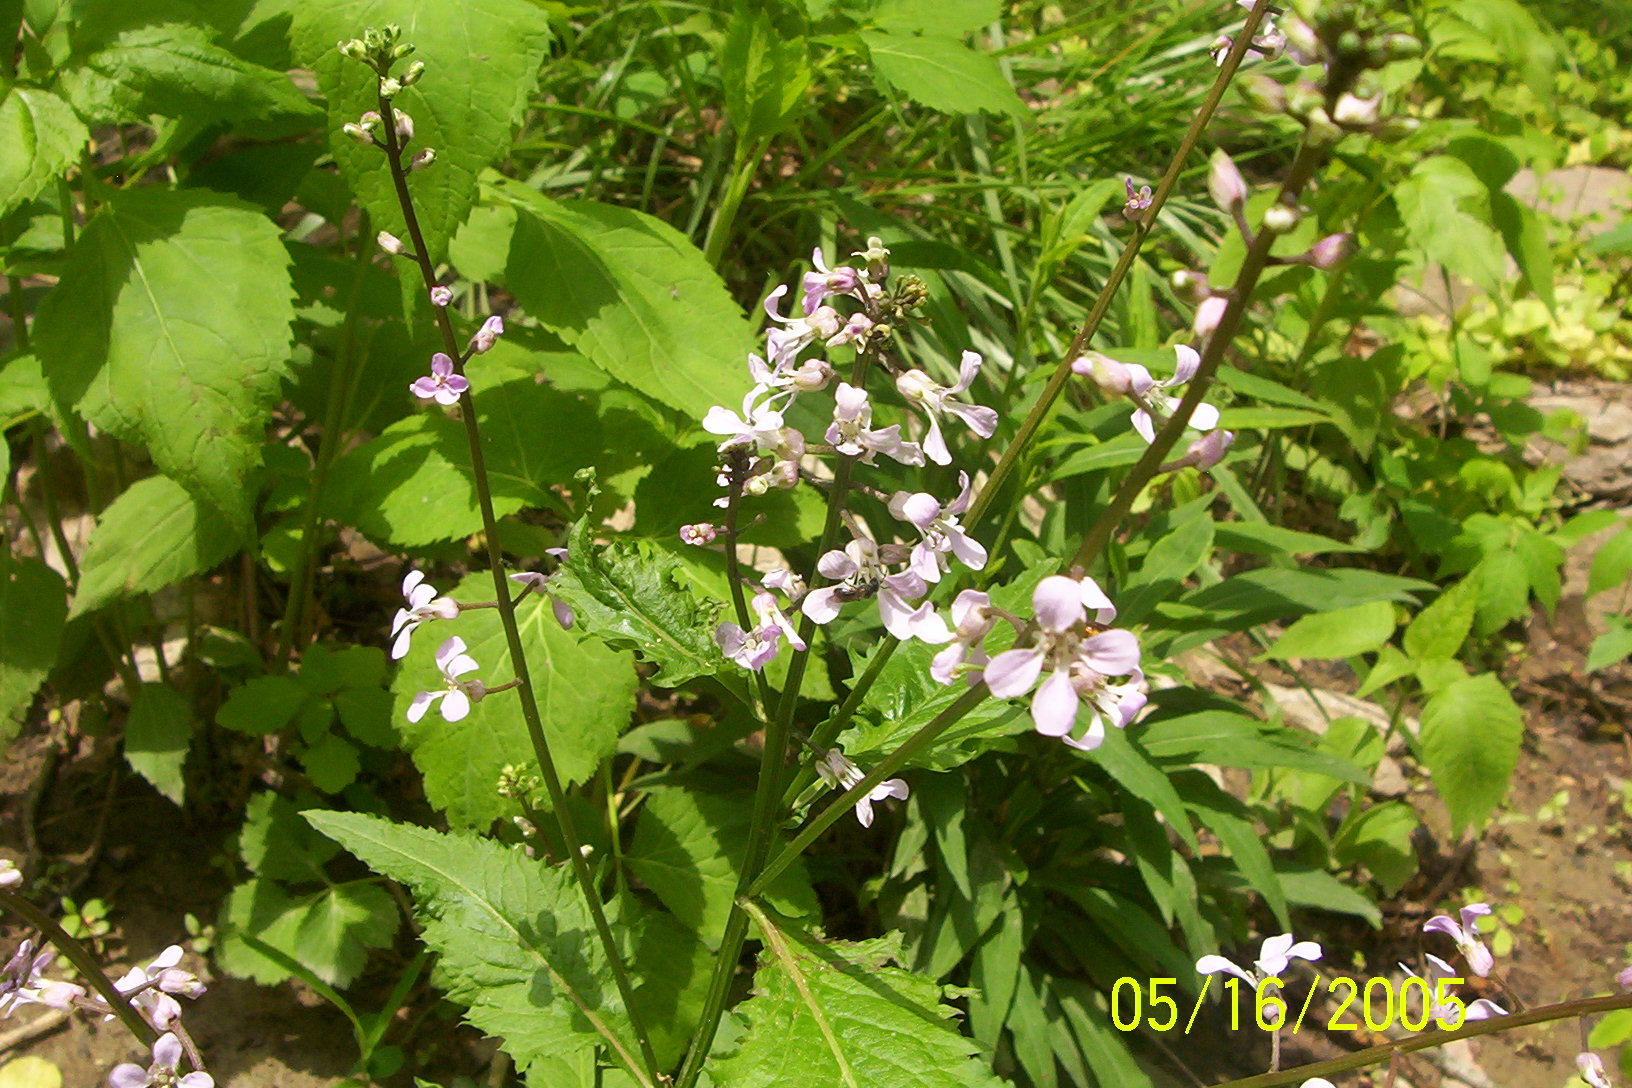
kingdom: Plantae
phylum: Tracheophyta
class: Magnoliopsida
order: Brassicales
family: Brassicaceae
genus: Iodanthus
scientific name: Iodanthus pinnatifidus
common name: Violet rocket
